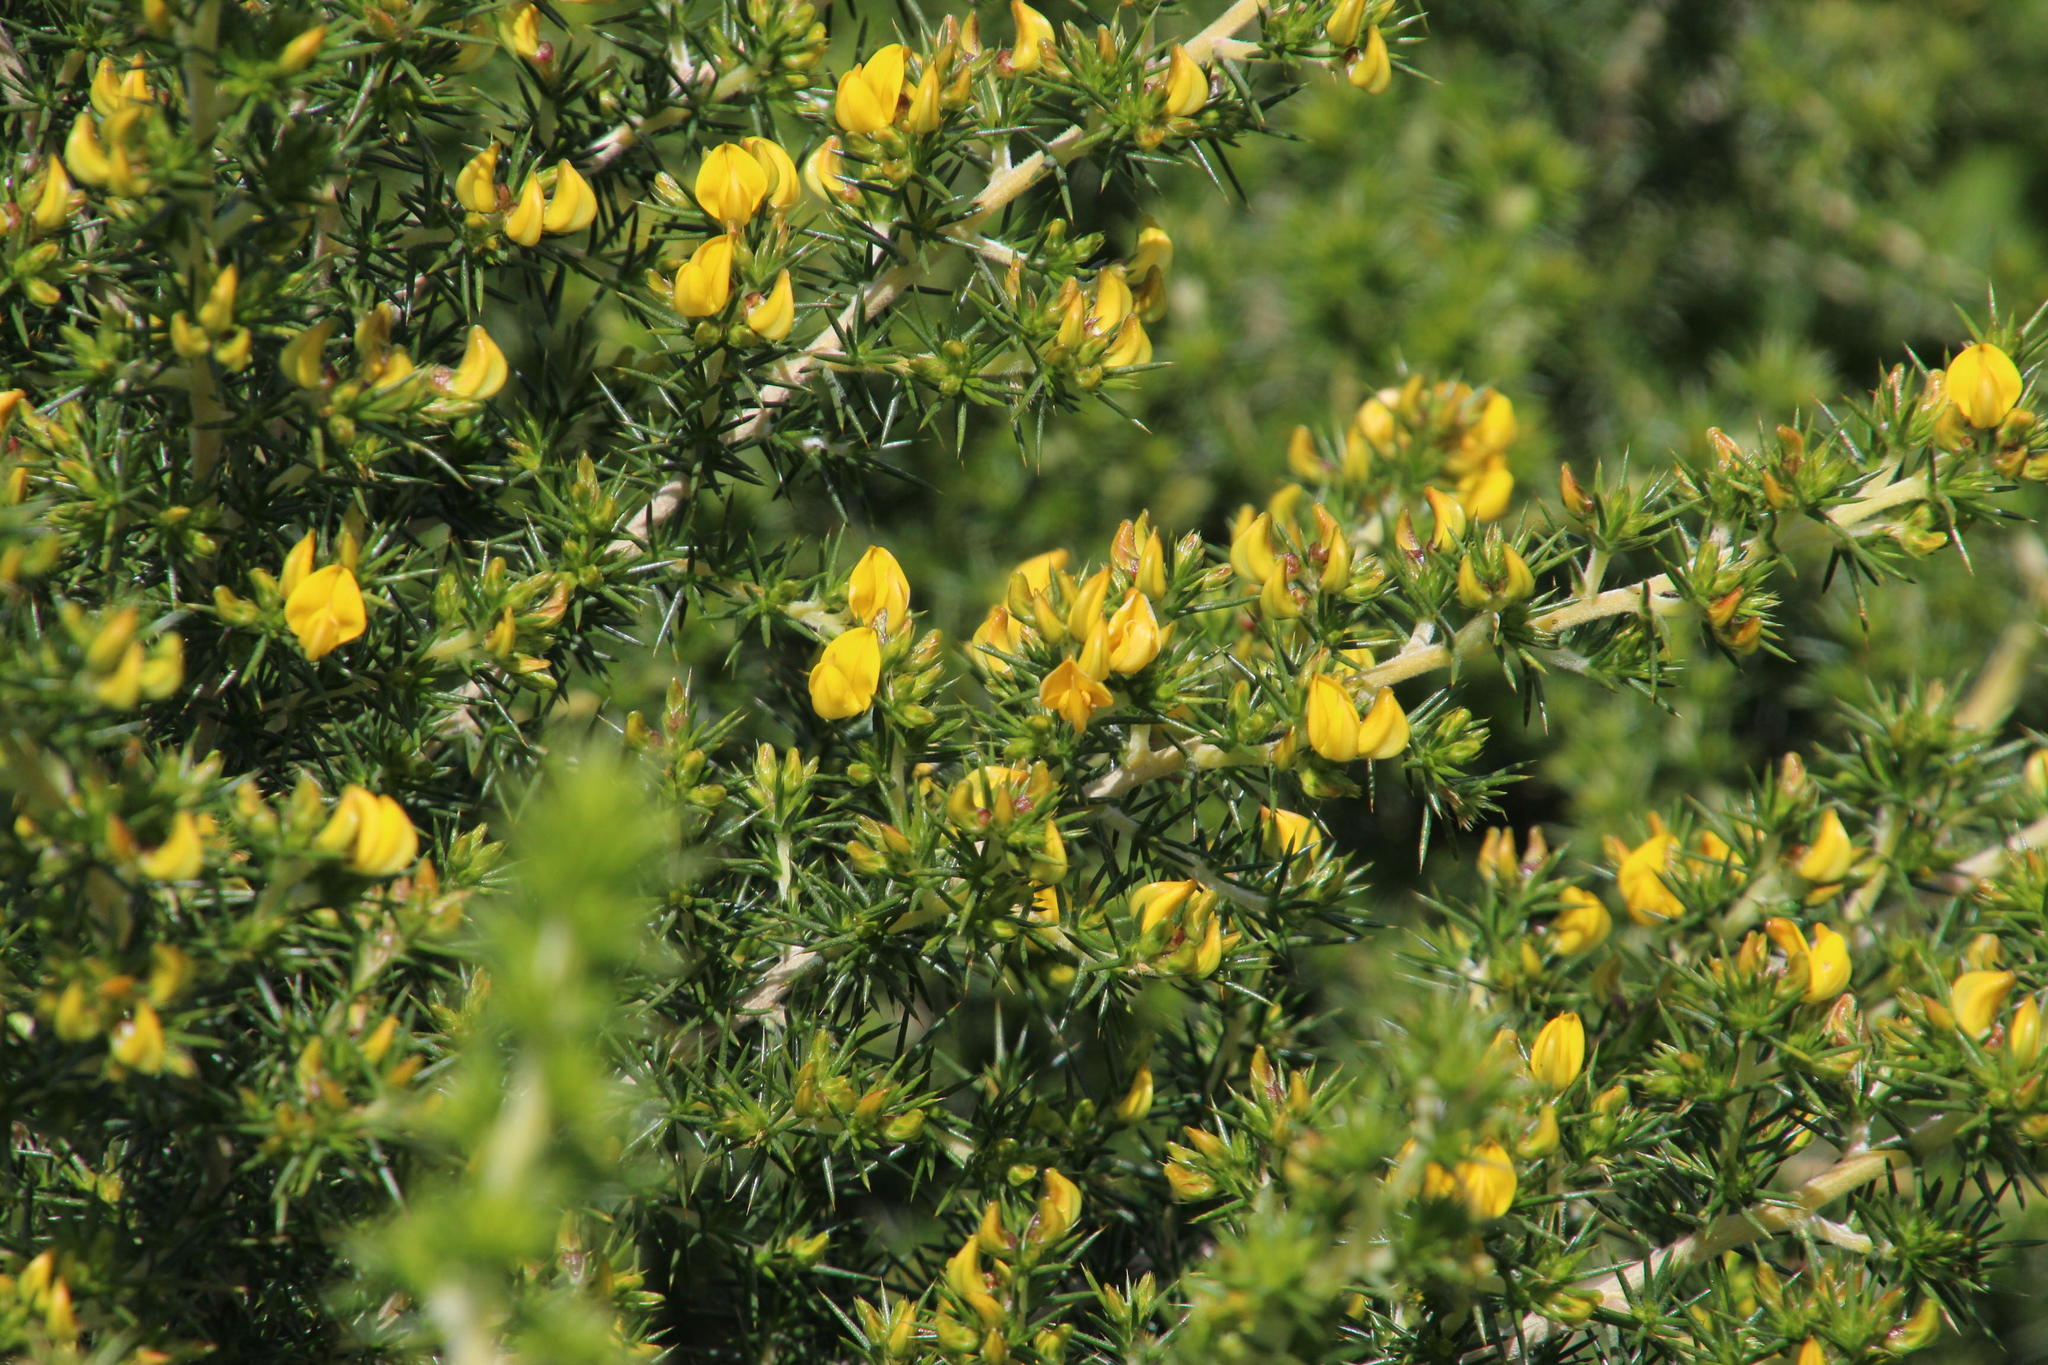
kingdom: Plantae
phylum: Tracheophyta
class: Magnoliopsida
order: Fabales
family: Fabaceae
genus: Aspalathus
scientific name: Aspalathus astroites
